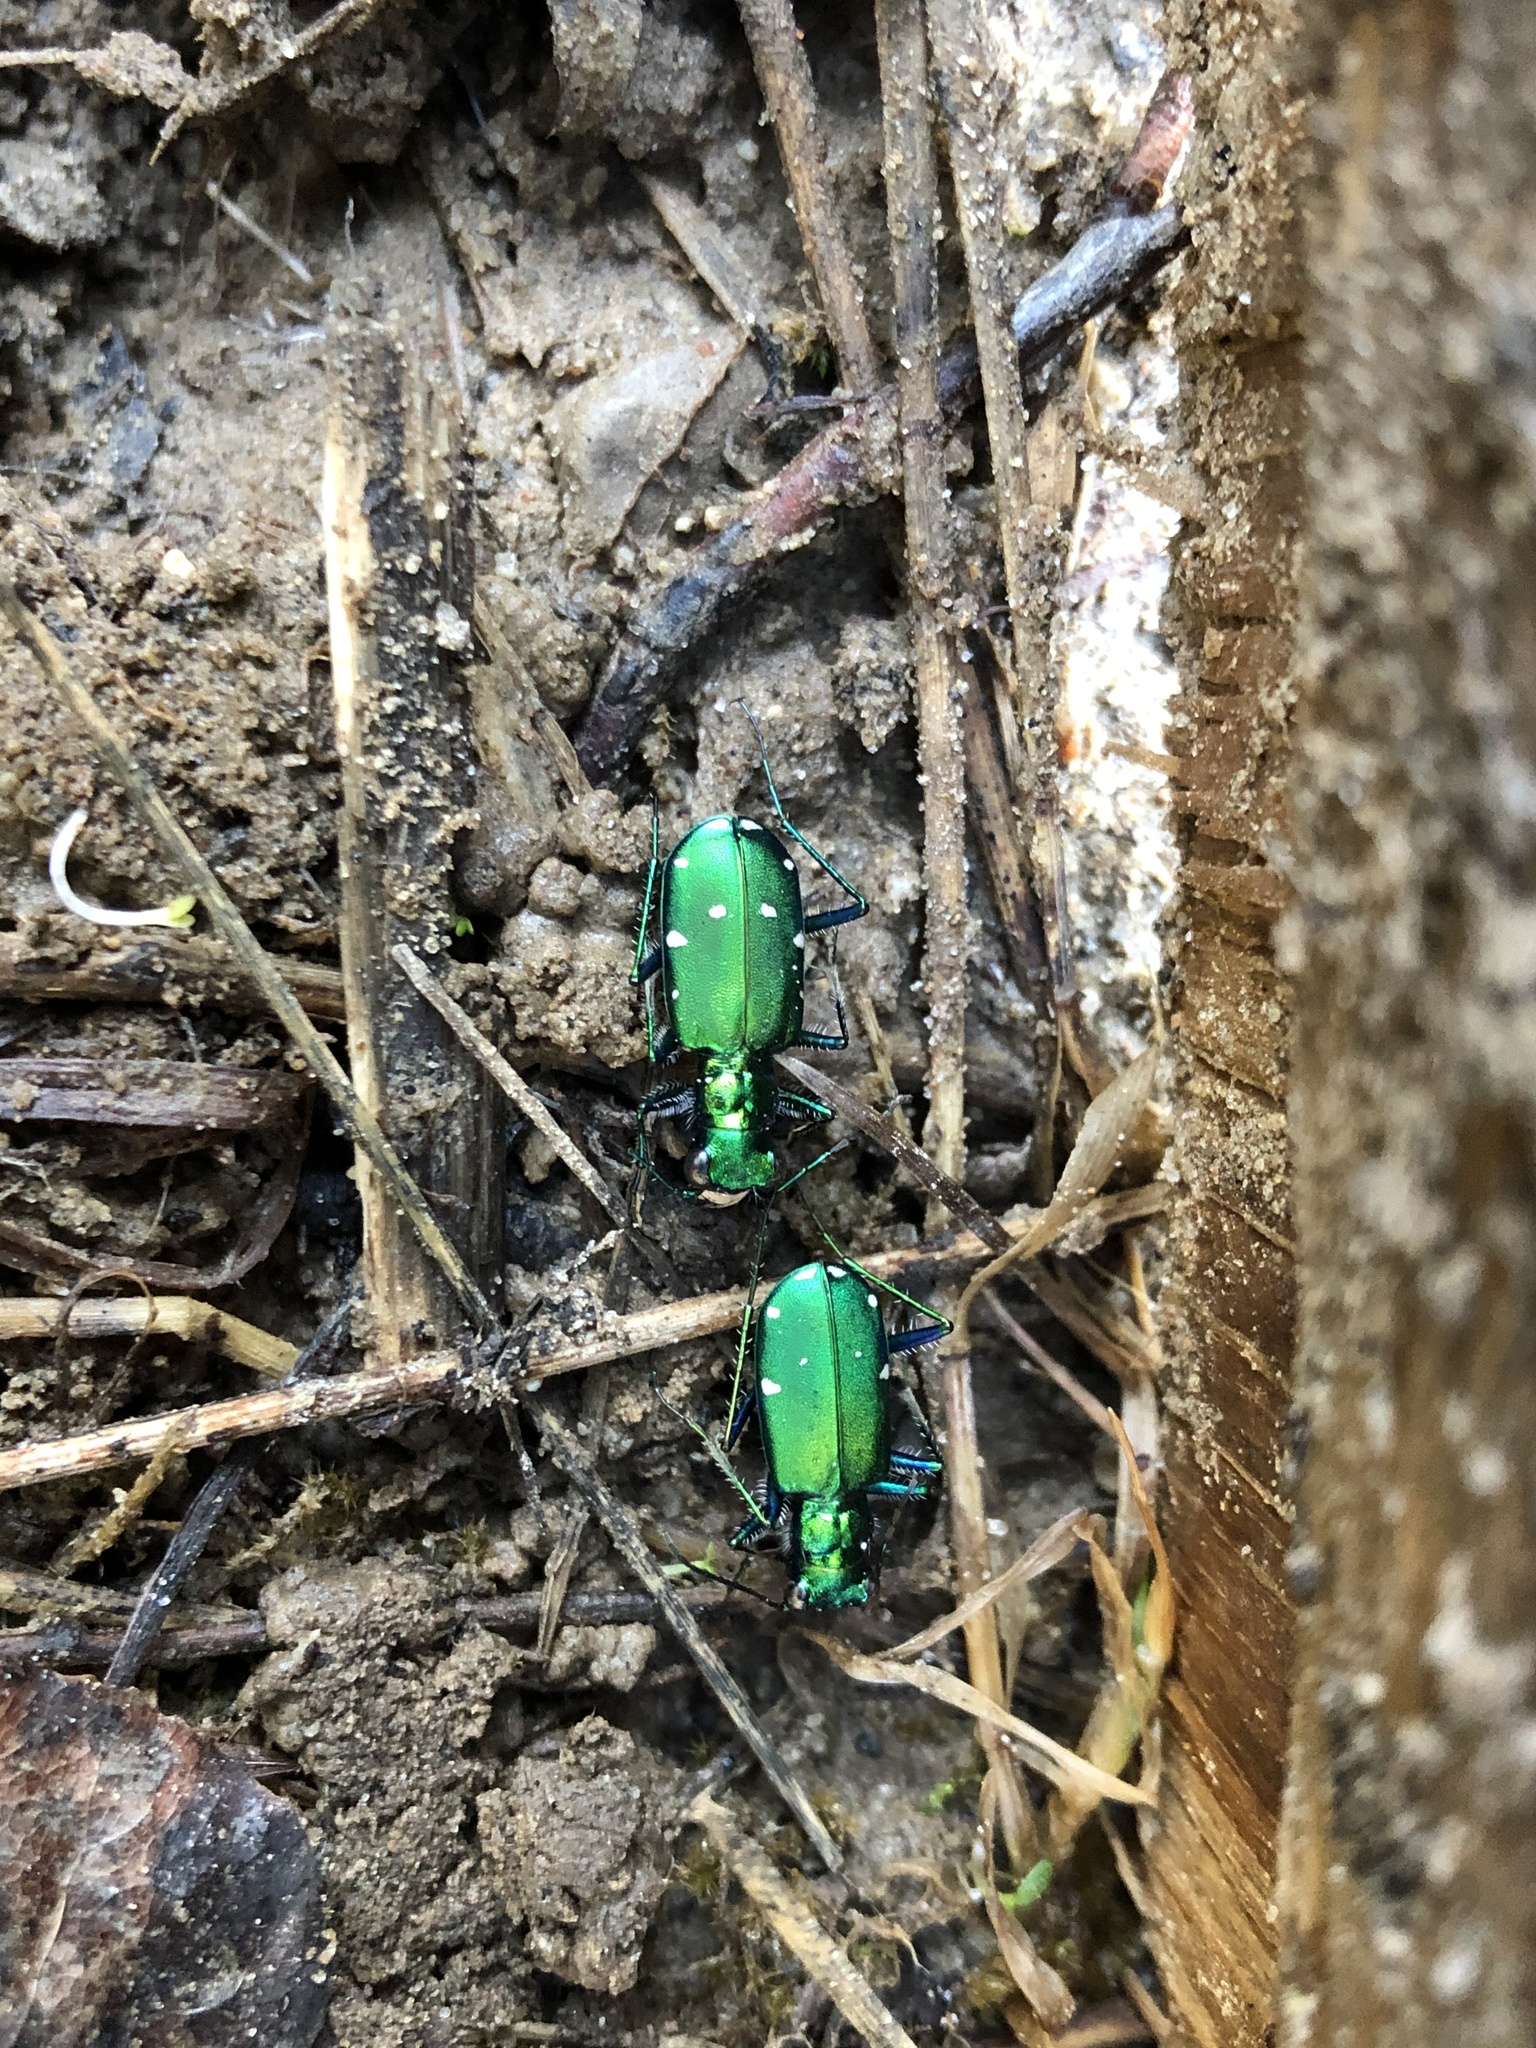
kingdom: Animalia
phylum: Arthropoda
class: Insecta
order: Coleoptera
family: Carabidae
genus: Cicindela
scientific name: Cicindela sexguttata
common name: Six-spotted tiger beetle
